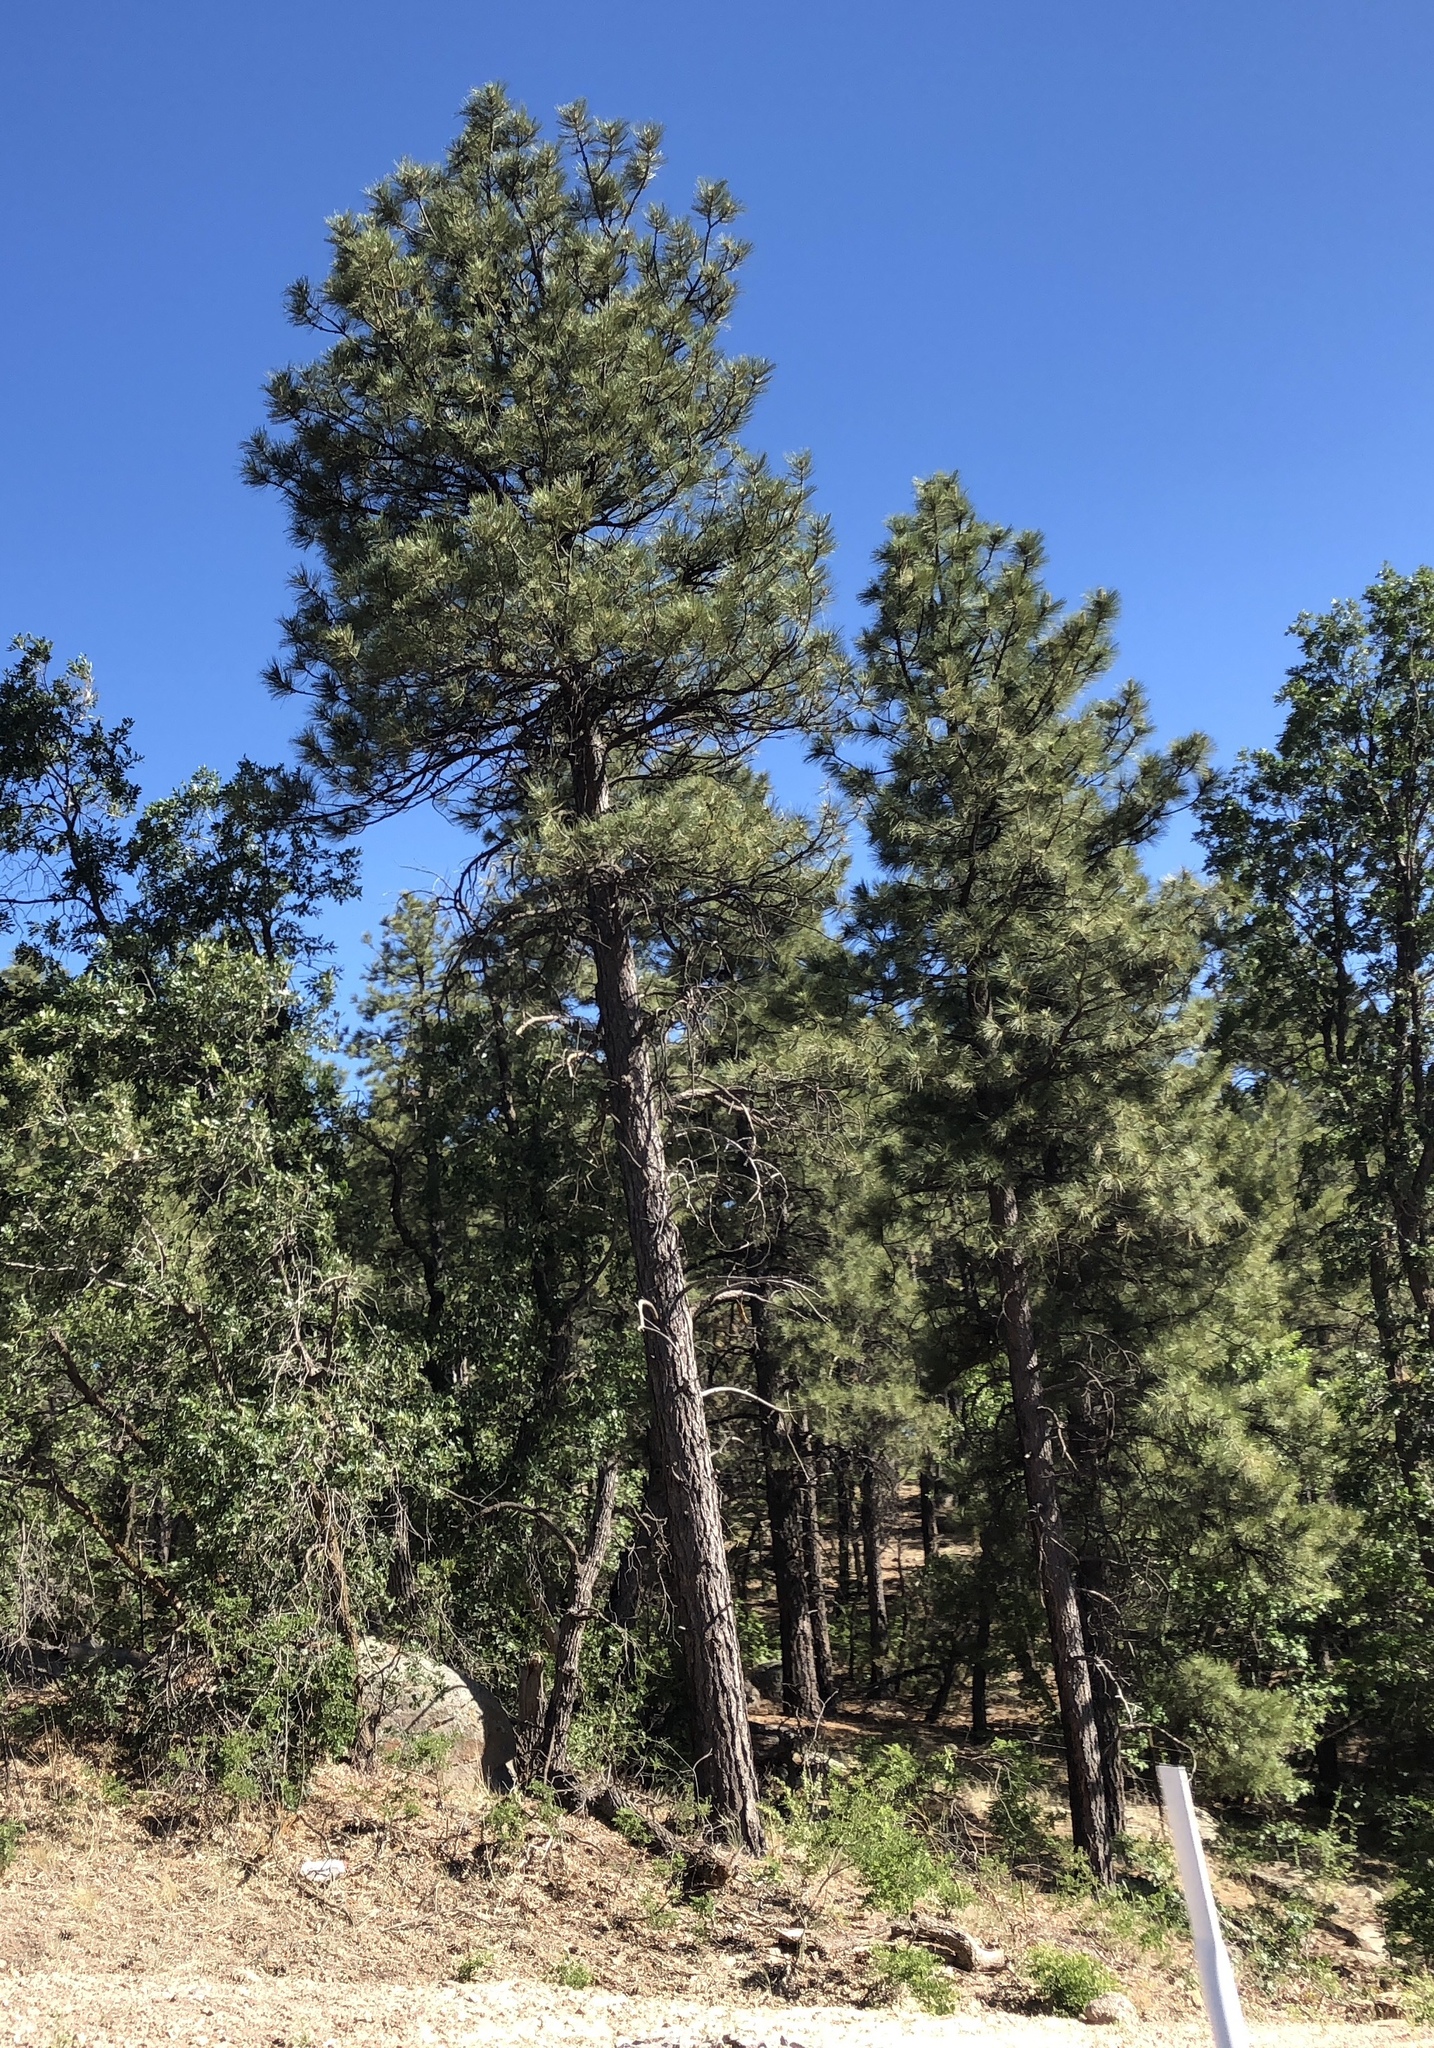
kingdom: Plantae
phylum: Tracheophyta
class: Pinopsida
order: Pinales
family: Pinaceae
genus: Pinus
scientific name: Pinus ponderosa
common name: Western yellow-pine
